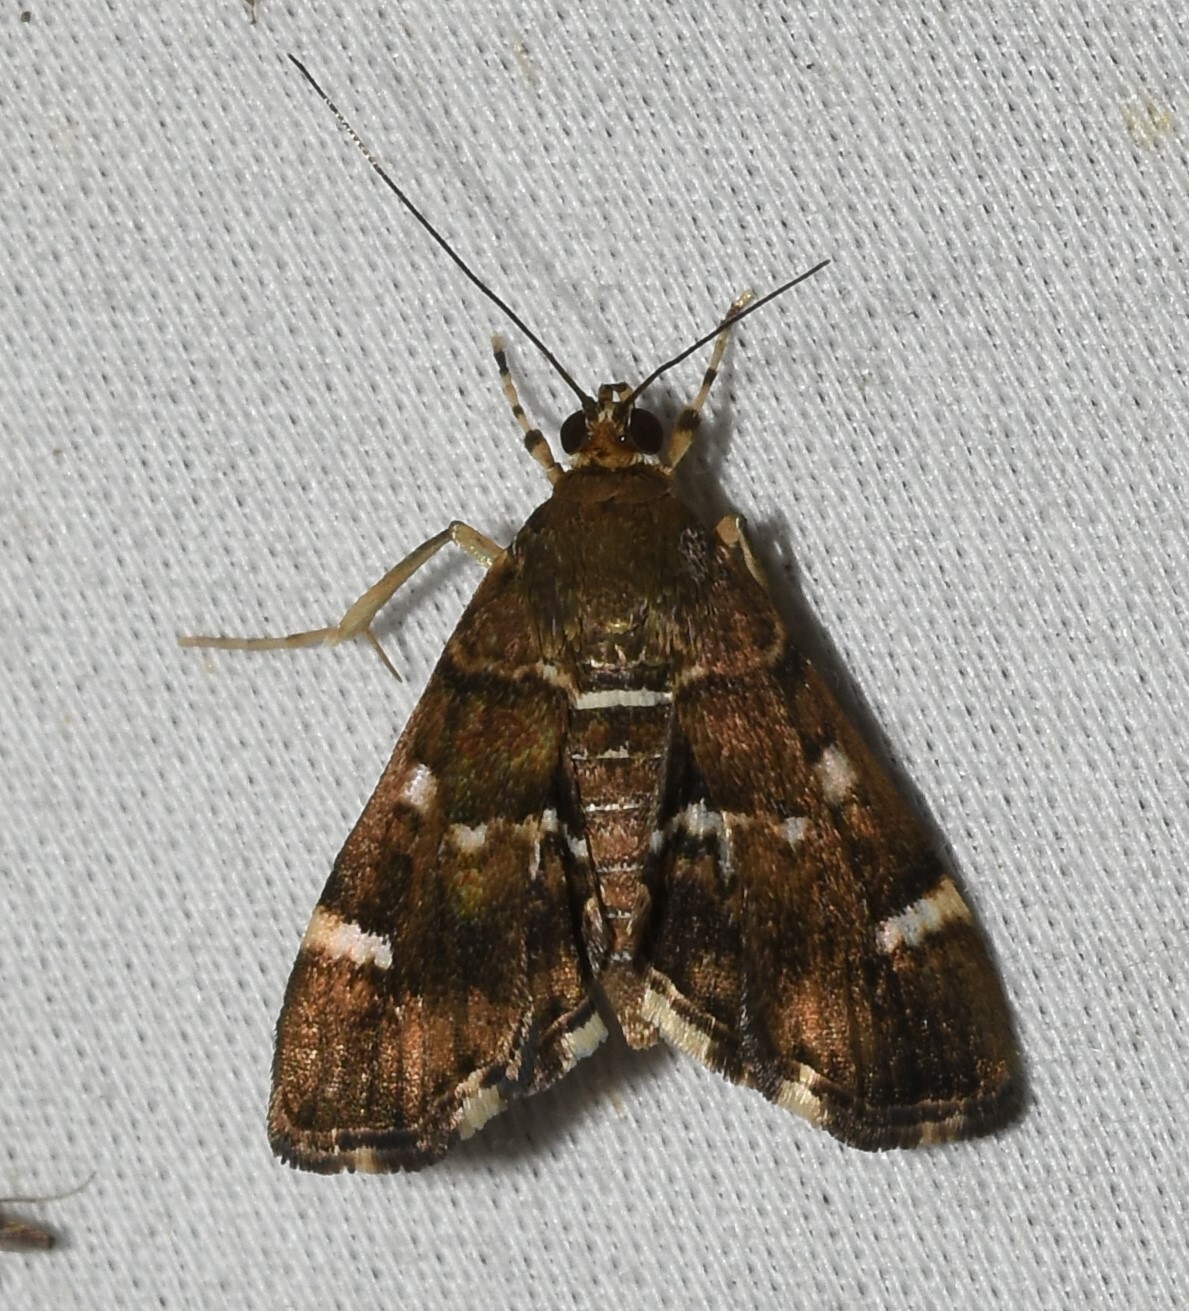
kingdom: Animalia
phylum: Arthropoda
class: Insecta
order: Lepidoptera
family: Crambidae
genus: Hymenia
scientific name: Hymenia perspectalis
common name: Spotted beet webworm
